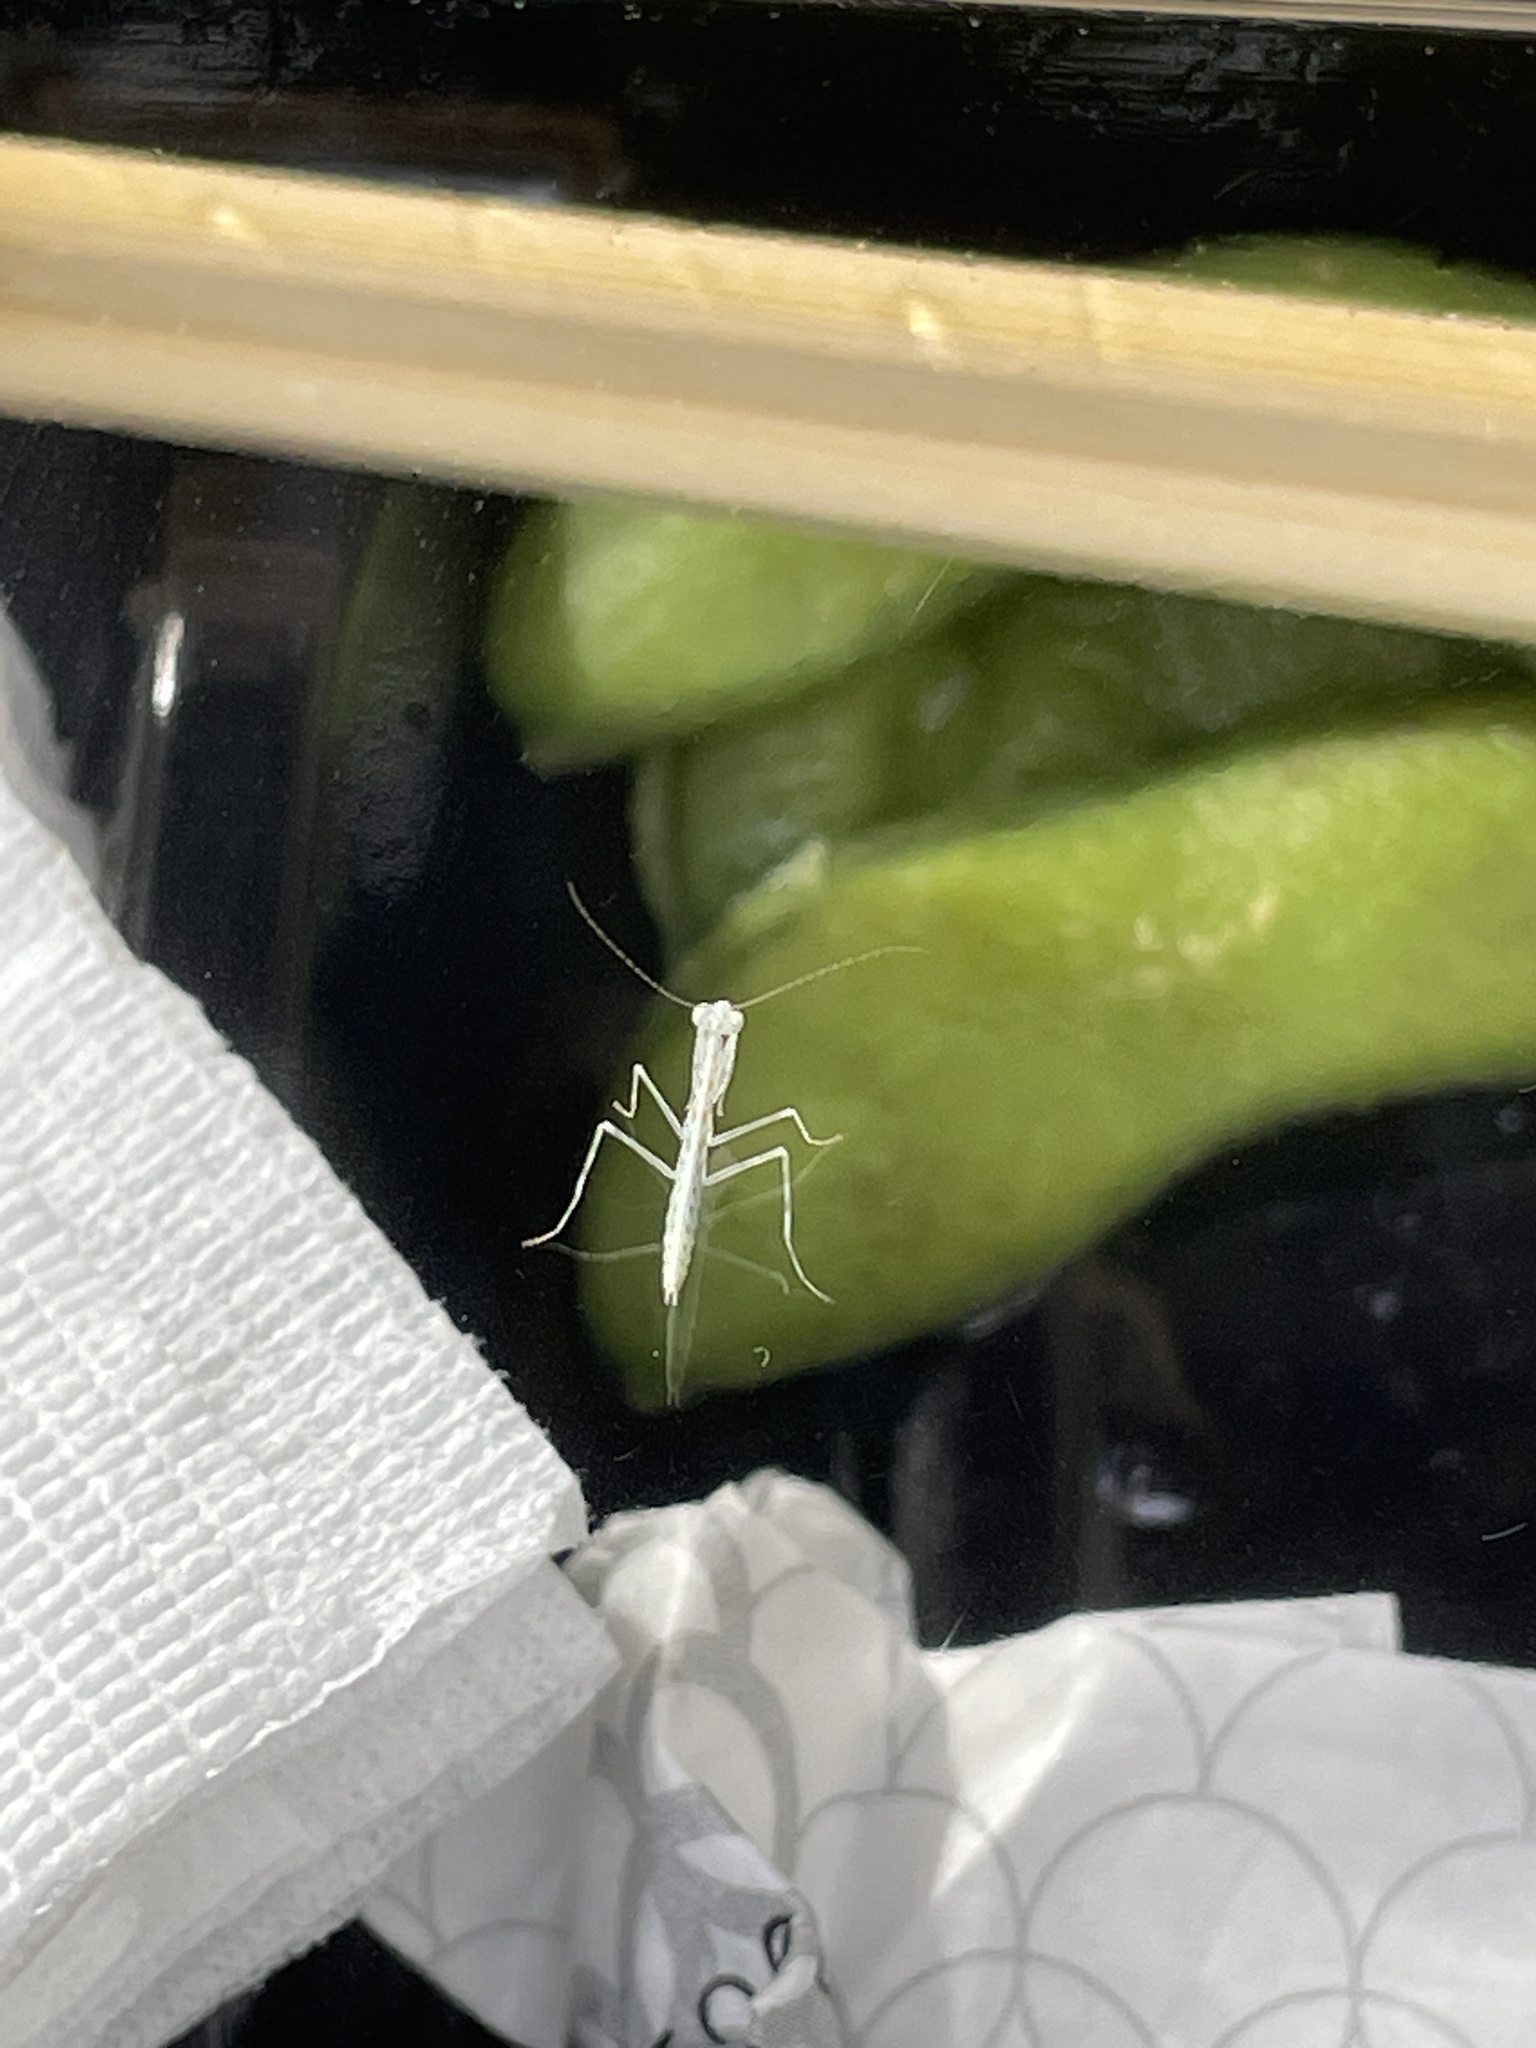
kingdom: Animalia
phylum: Arthropoda
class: Insecta
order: Mantodea
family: Nanomantidae
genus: Kongobatha
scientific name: Kongobatha diademata
